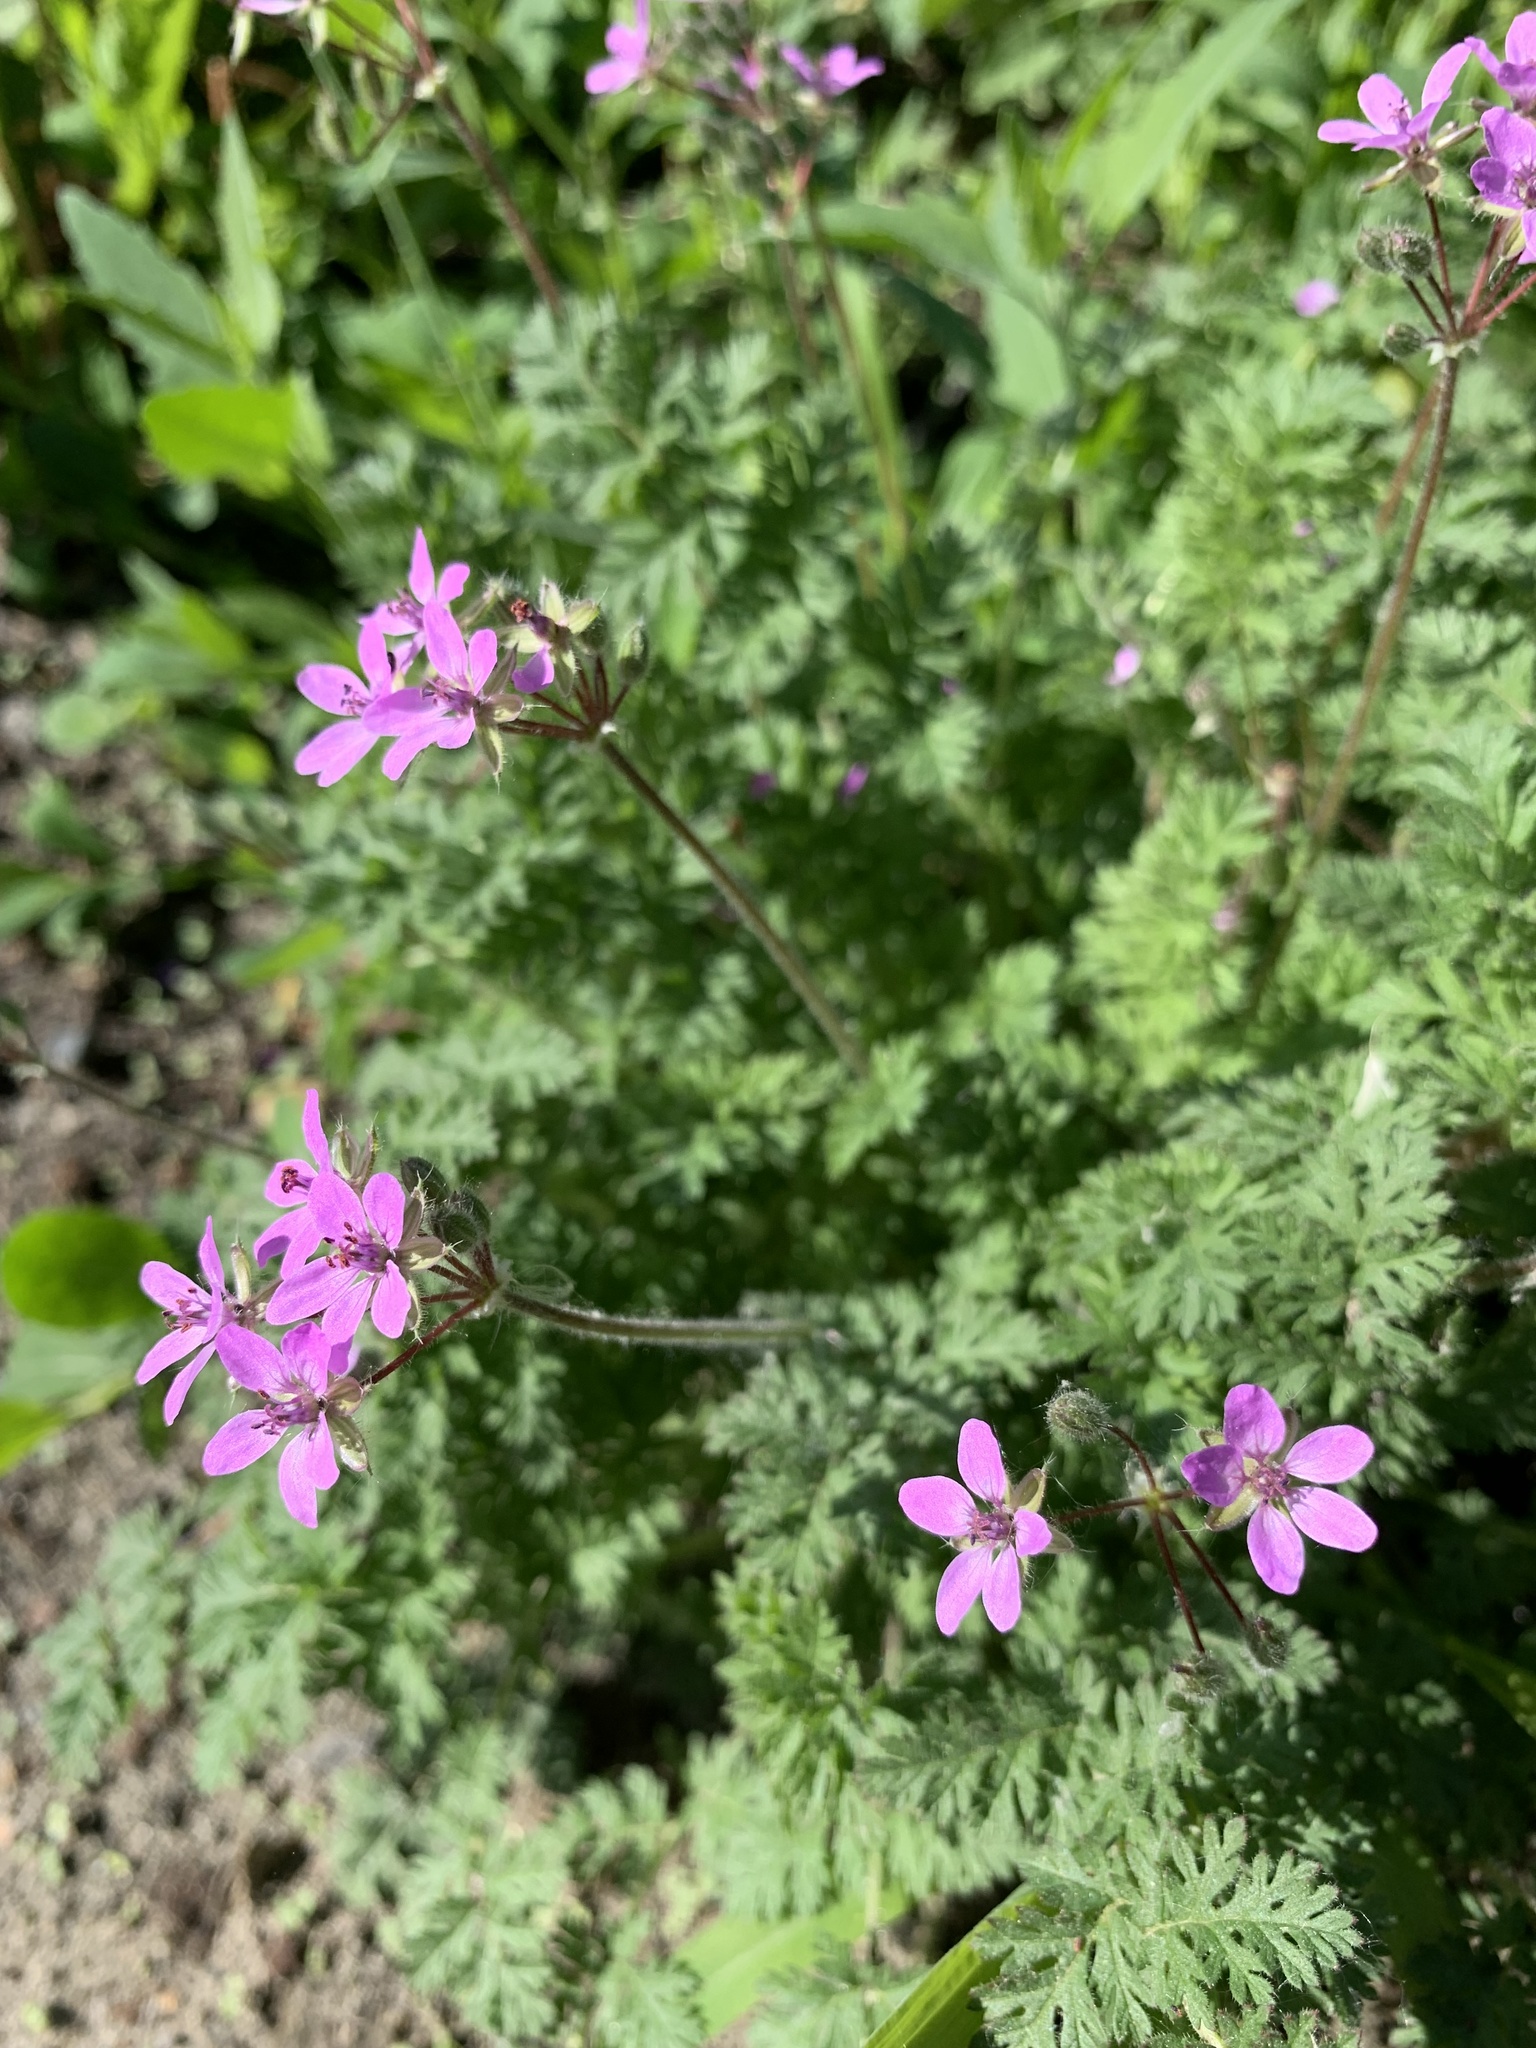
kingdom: Plantae
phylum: Tracheophyta
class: Magnoliopsida
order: Geraniales
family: Geraniaceae
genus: Erodium
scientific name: Erodium cicutarium
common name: Common stork's-bill
